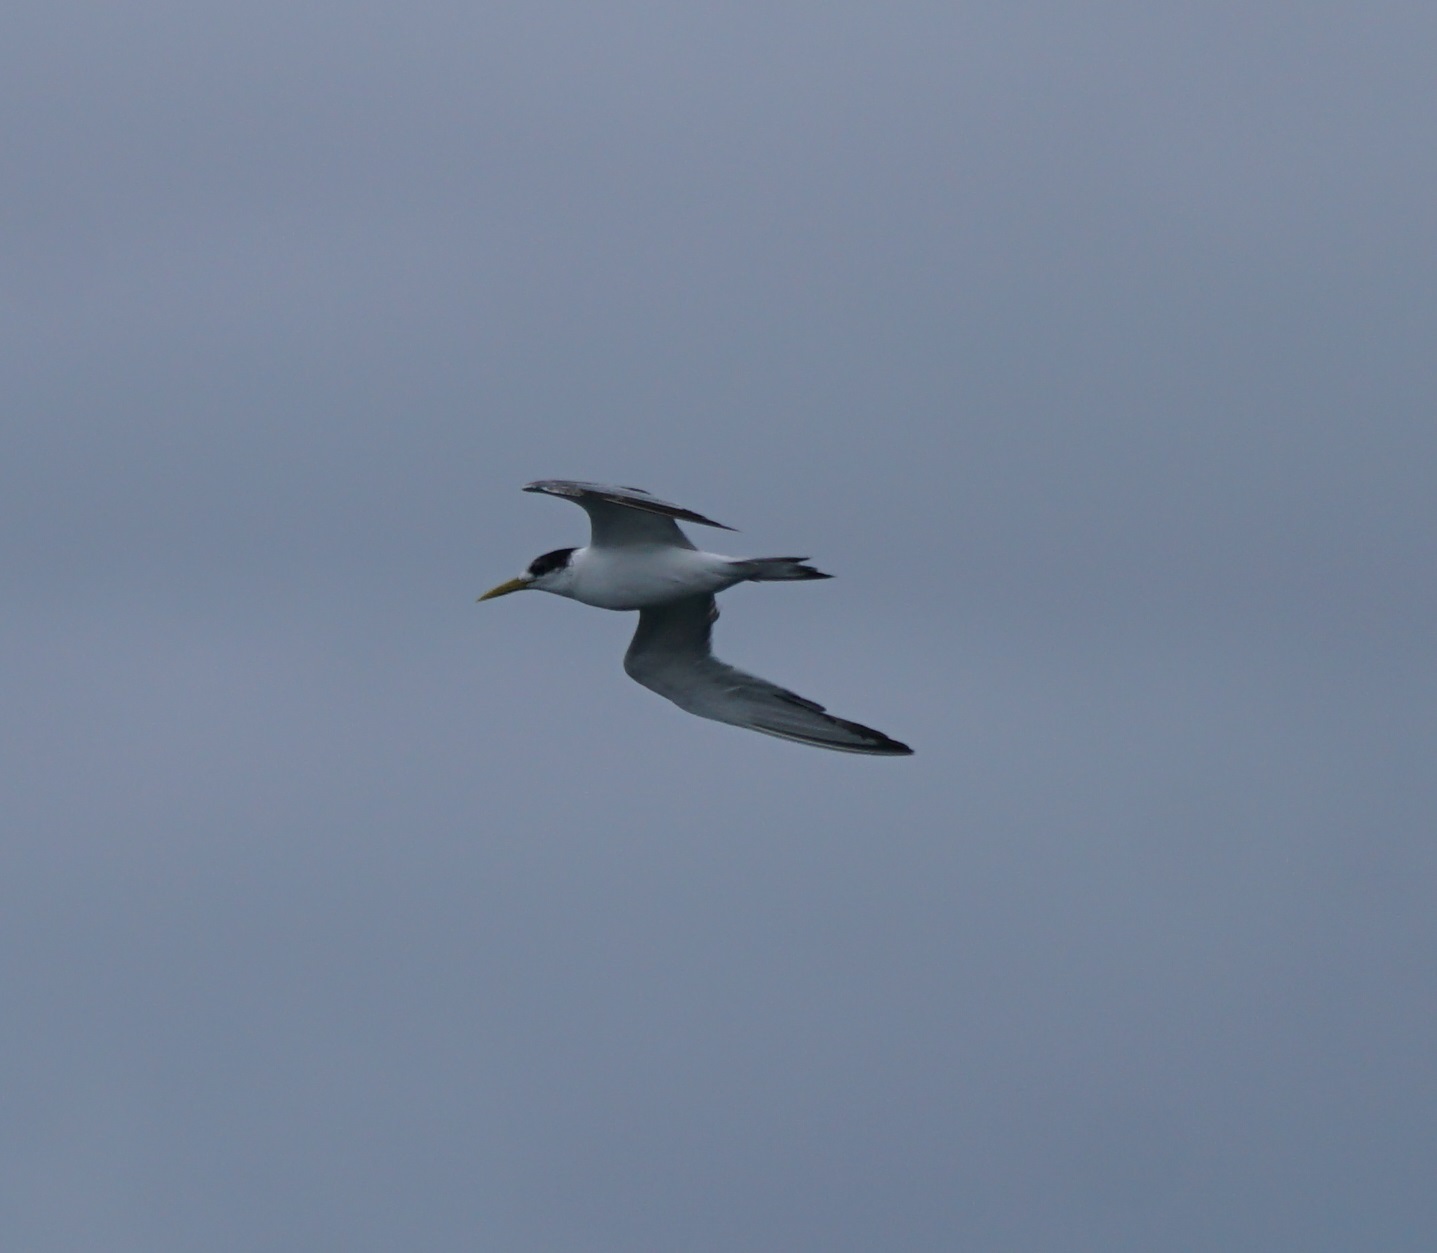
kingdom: Animalia
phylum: Chordata
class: Aves
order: Charadriiformes
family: Laridae
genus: Thalasseus
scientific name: Thalasseus bergii
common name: Greater crested tern
